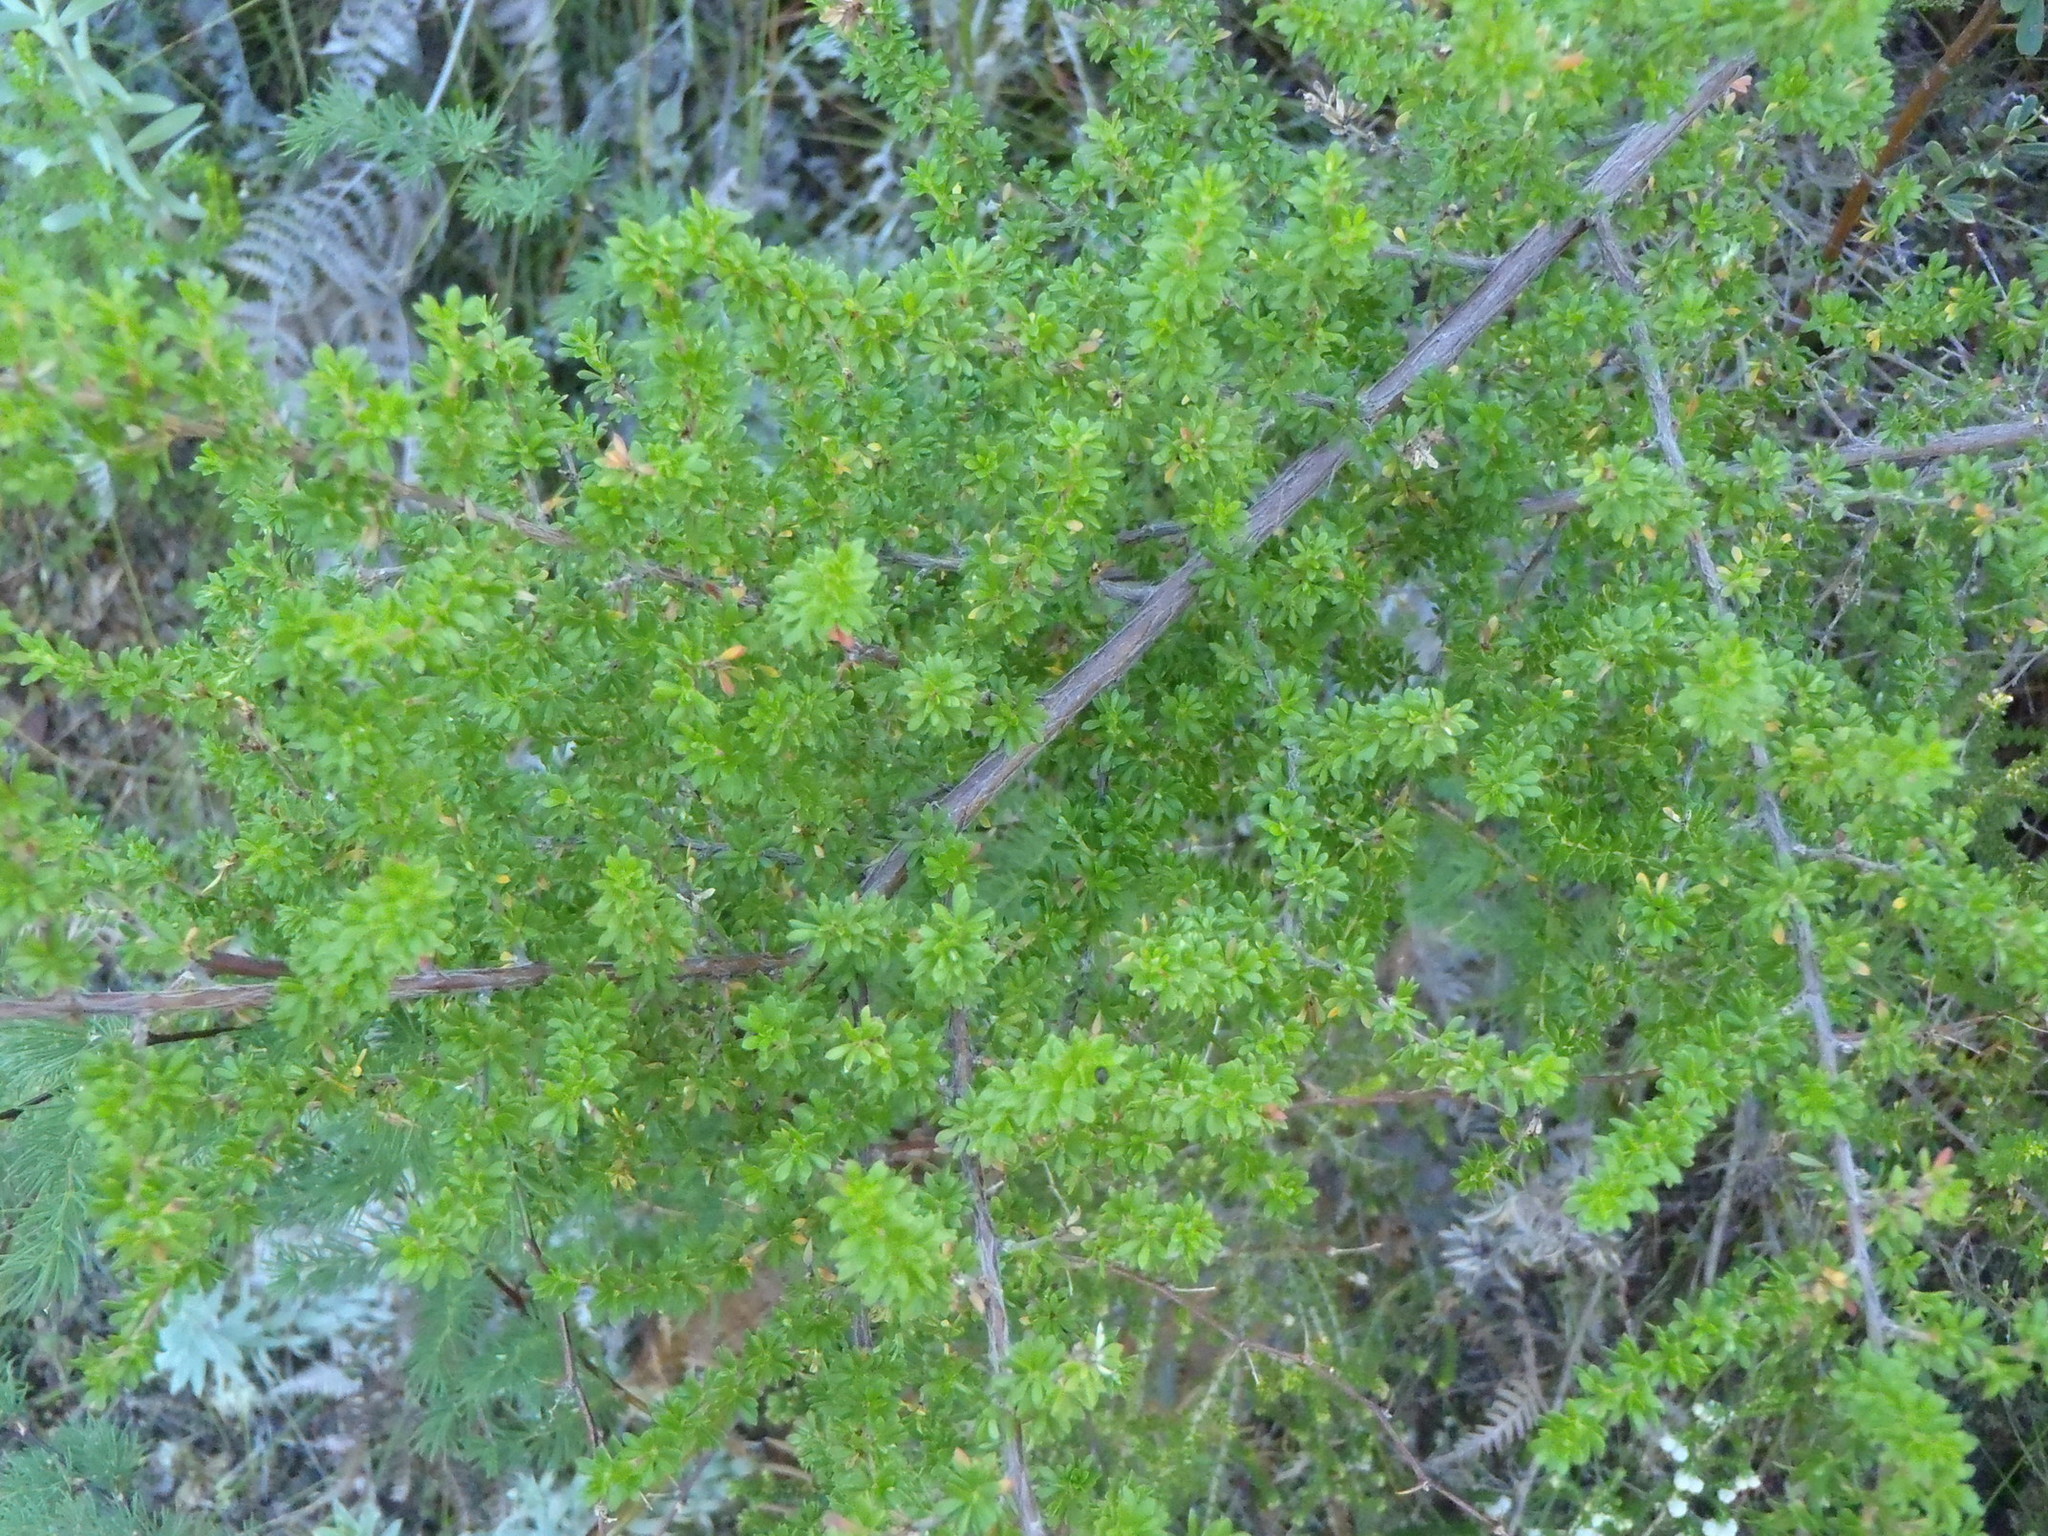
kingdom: Plantae
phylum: Tracheophyta
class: Magnoliopsida
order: Rosales
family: Rosaceae
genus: Cliffortia
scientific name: Cliffortia serpyllifolia
